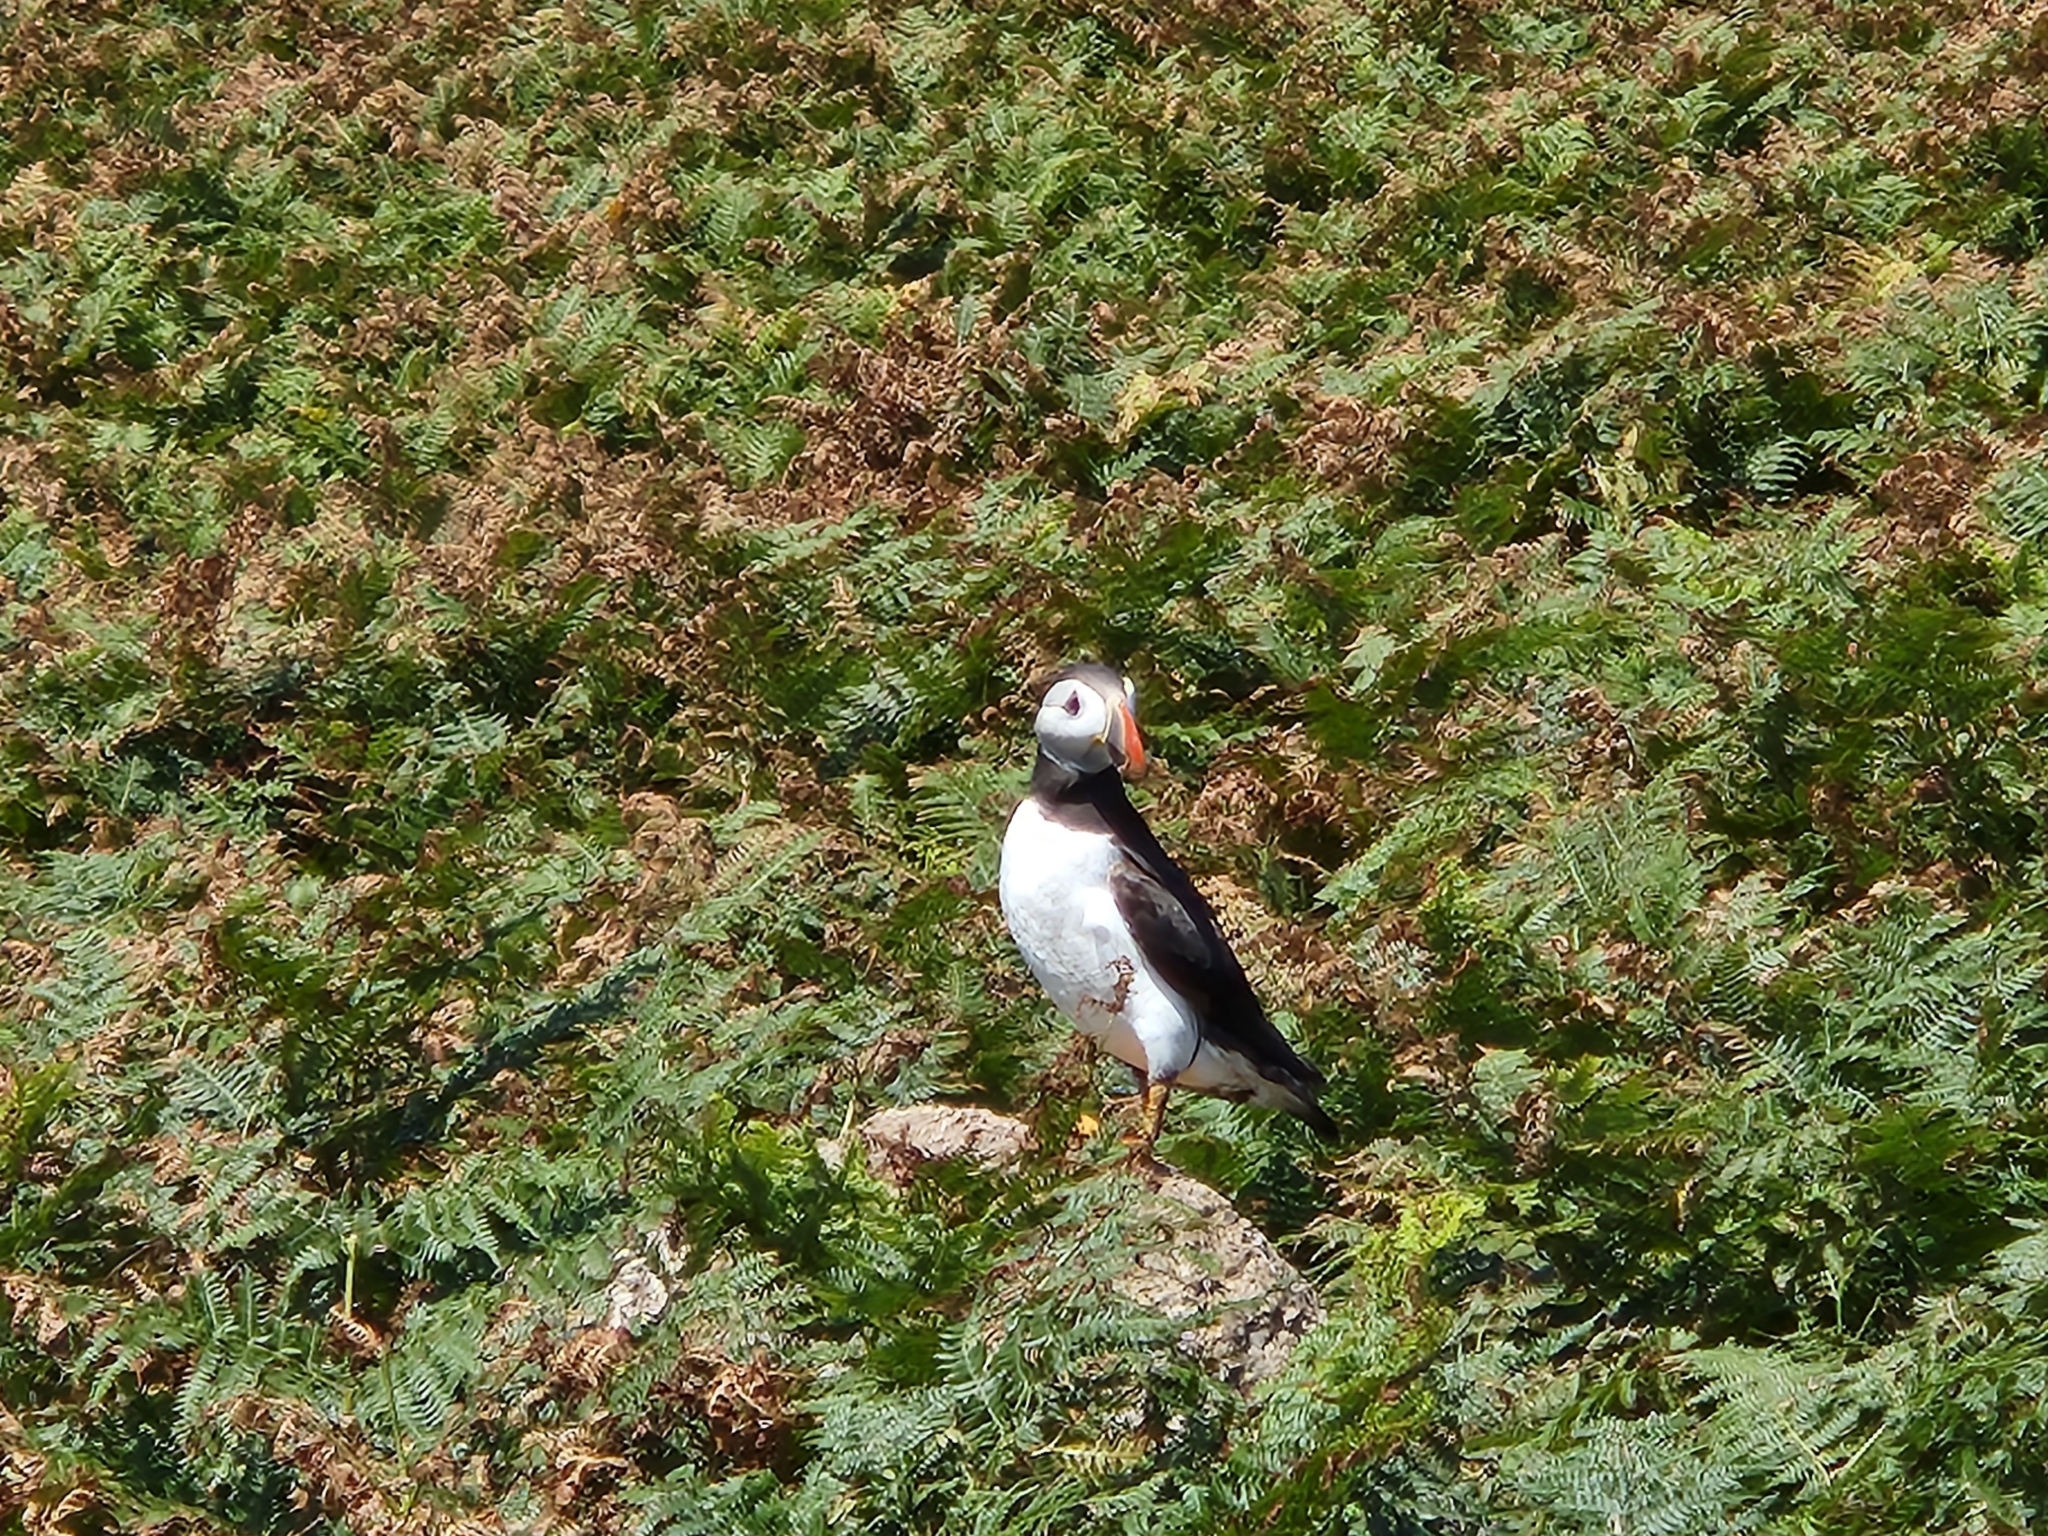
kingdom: Animalia
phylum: Chordata
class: Aves
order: Charadriiformes
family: Alcidae
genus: Fratercula
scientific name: Fratercula arctica
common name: Atlantic puffin
